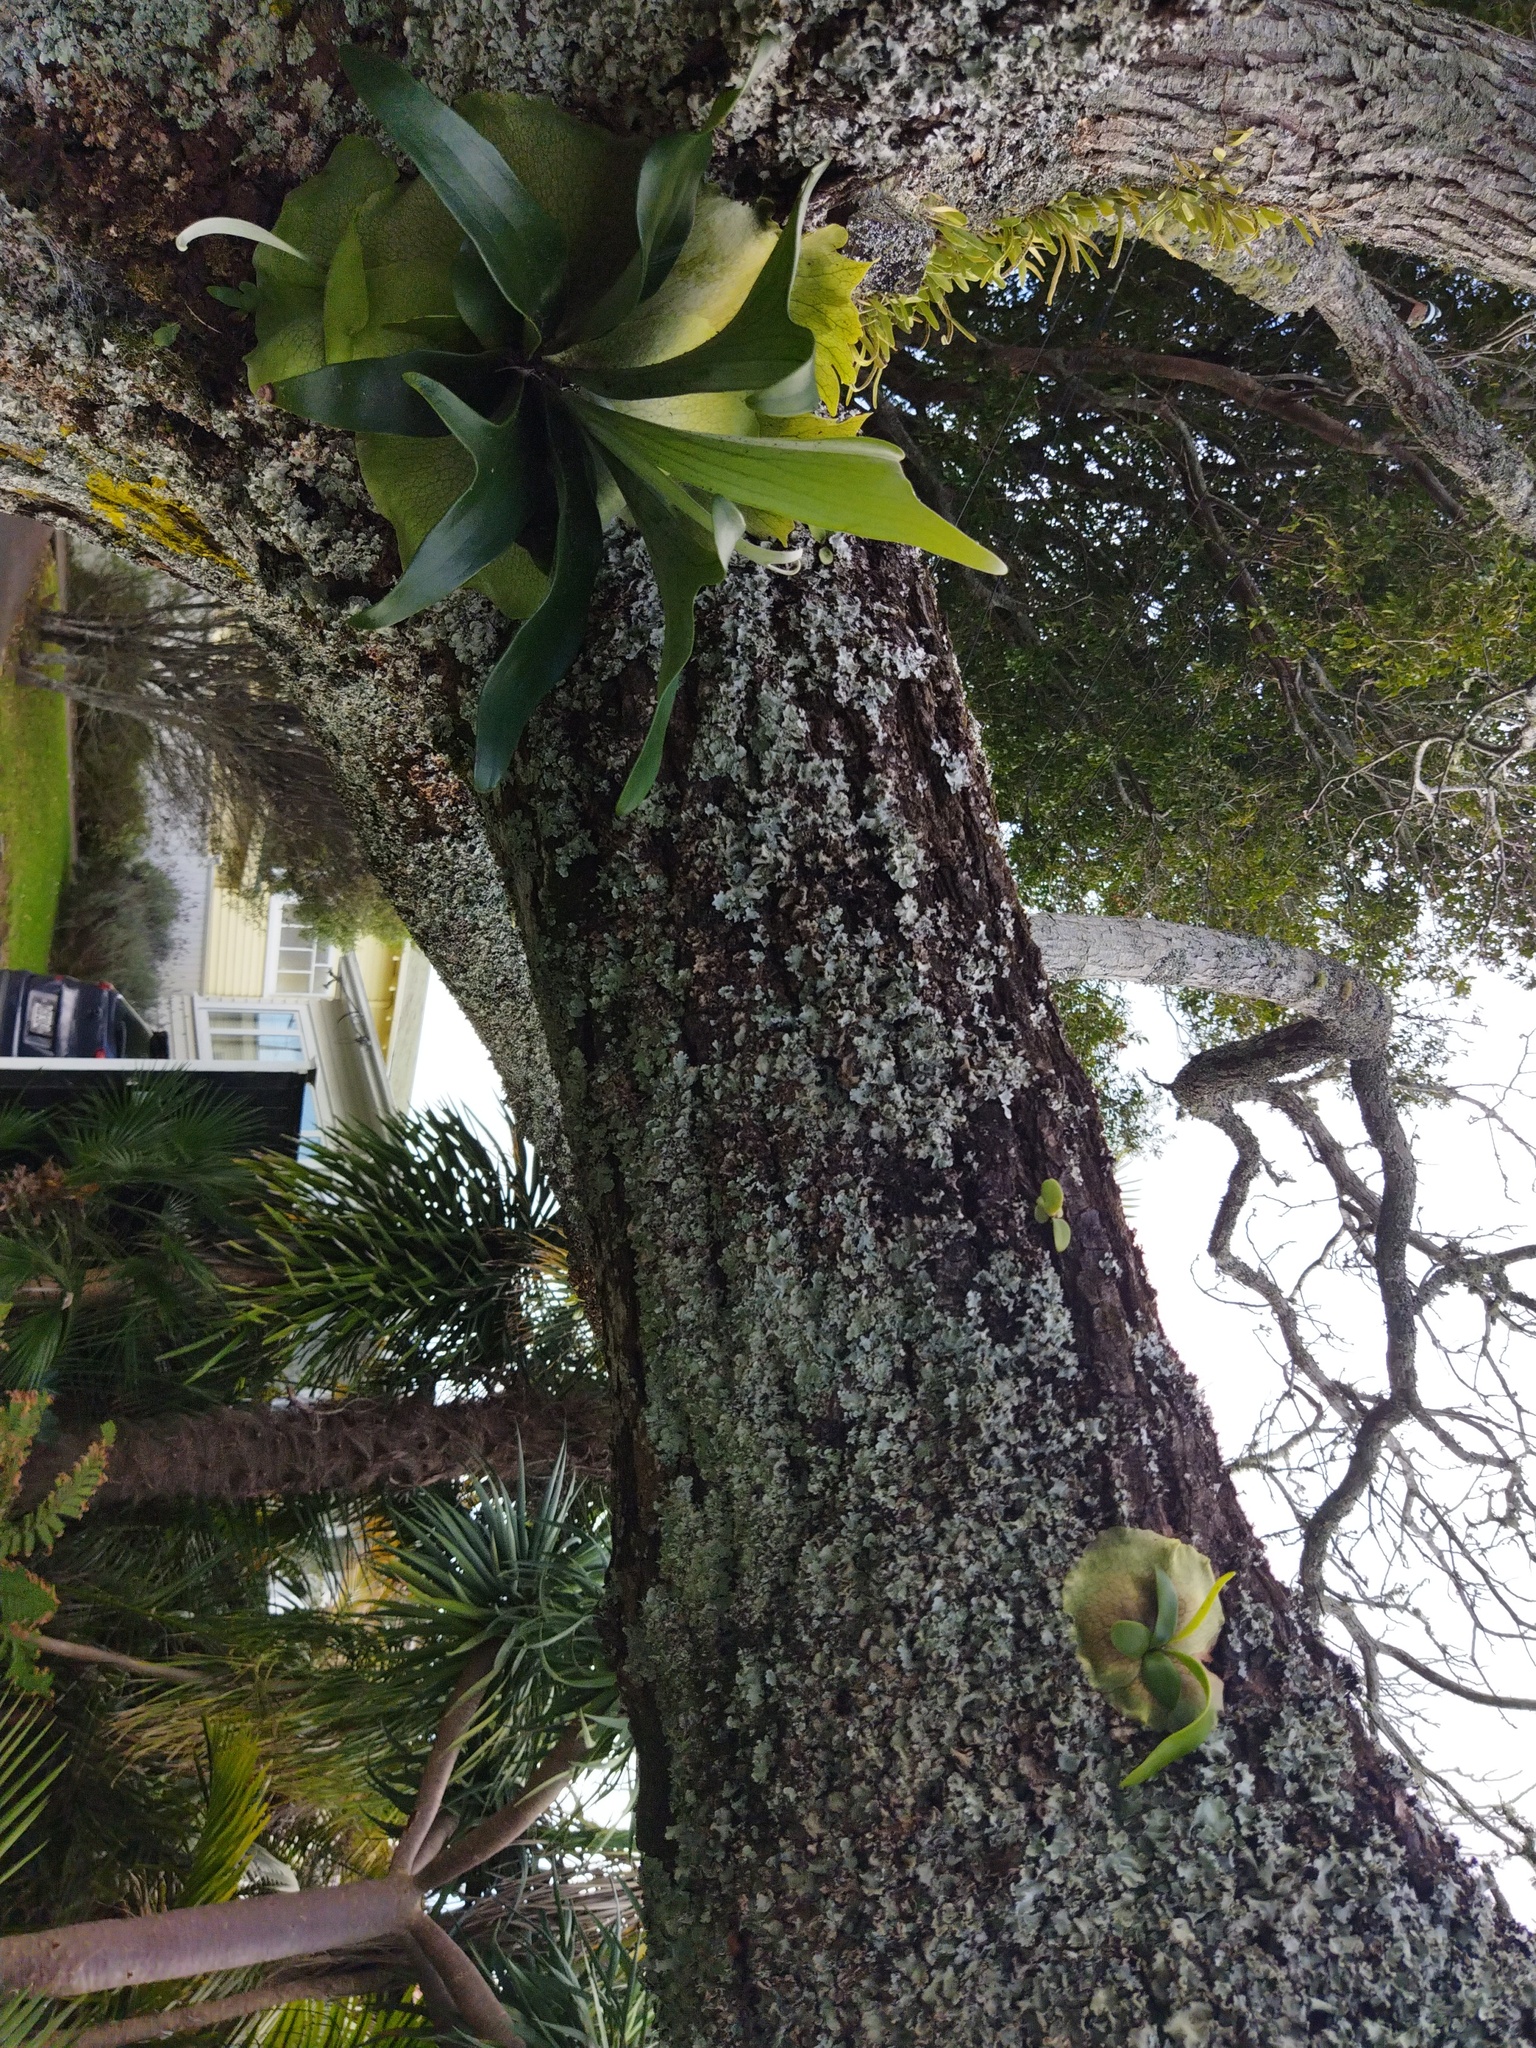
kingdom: Plantae
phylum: Tracheophyta
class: Polypodiopsida
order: Polypodiales
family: Polypodiaceae
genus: Platycerium
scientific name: Platycerium bifurcatum
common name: Elkhorn fern
